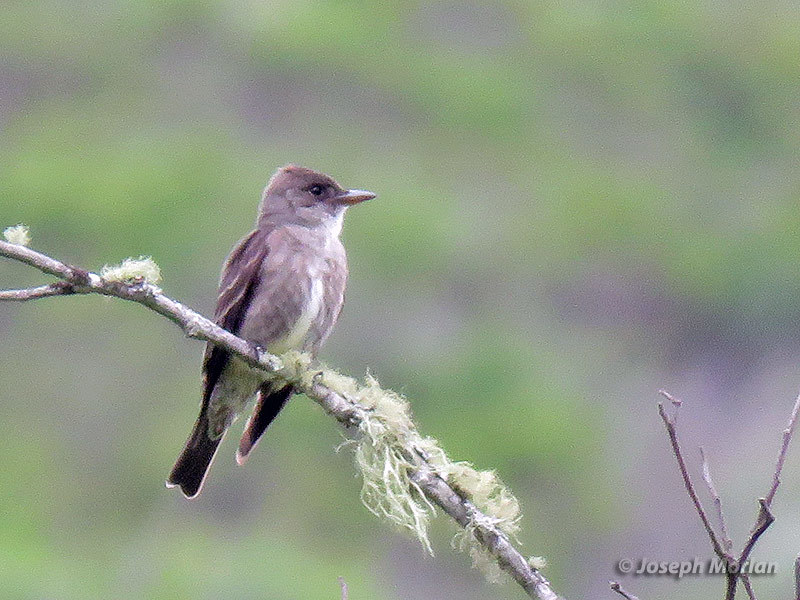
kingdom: Animalia
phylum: Chordata
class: Aves
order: Passeriformes
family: Tyrannidae
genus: Contopus
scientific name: Contopus cooperi
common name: Olive-sided flycatcher
